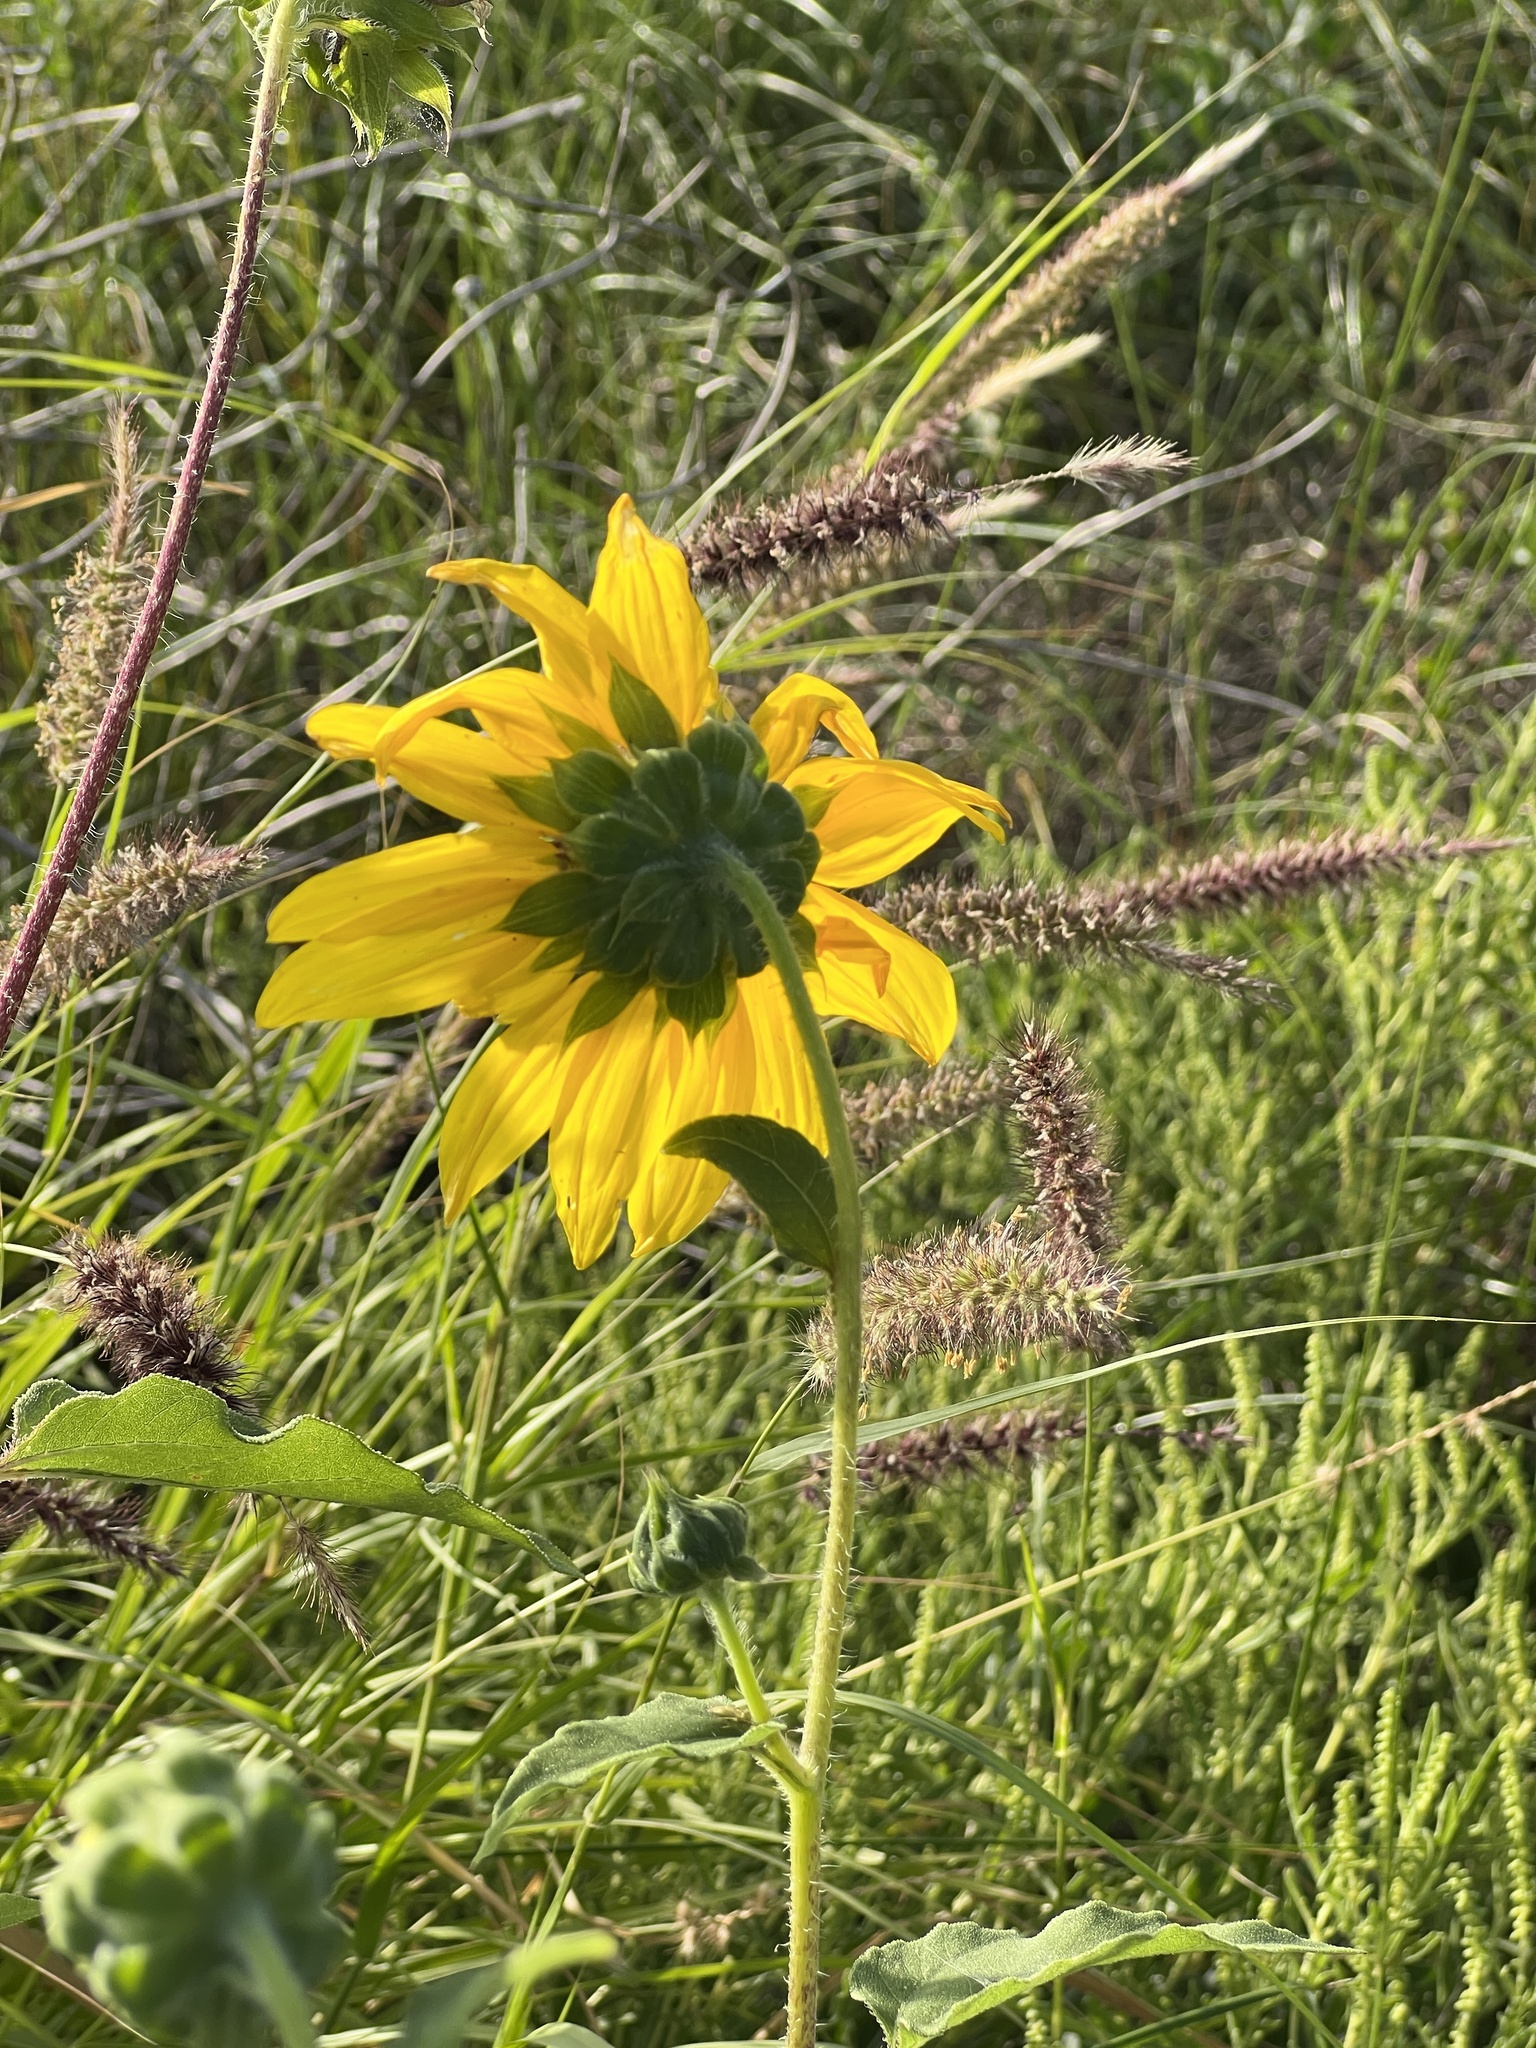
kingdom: Plantae
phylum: Tracheophyta
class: Magnoliopsida
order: Asterales
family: Asteraceae
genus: Helianthus
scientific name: Helianthus annuus
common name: Sunflower
